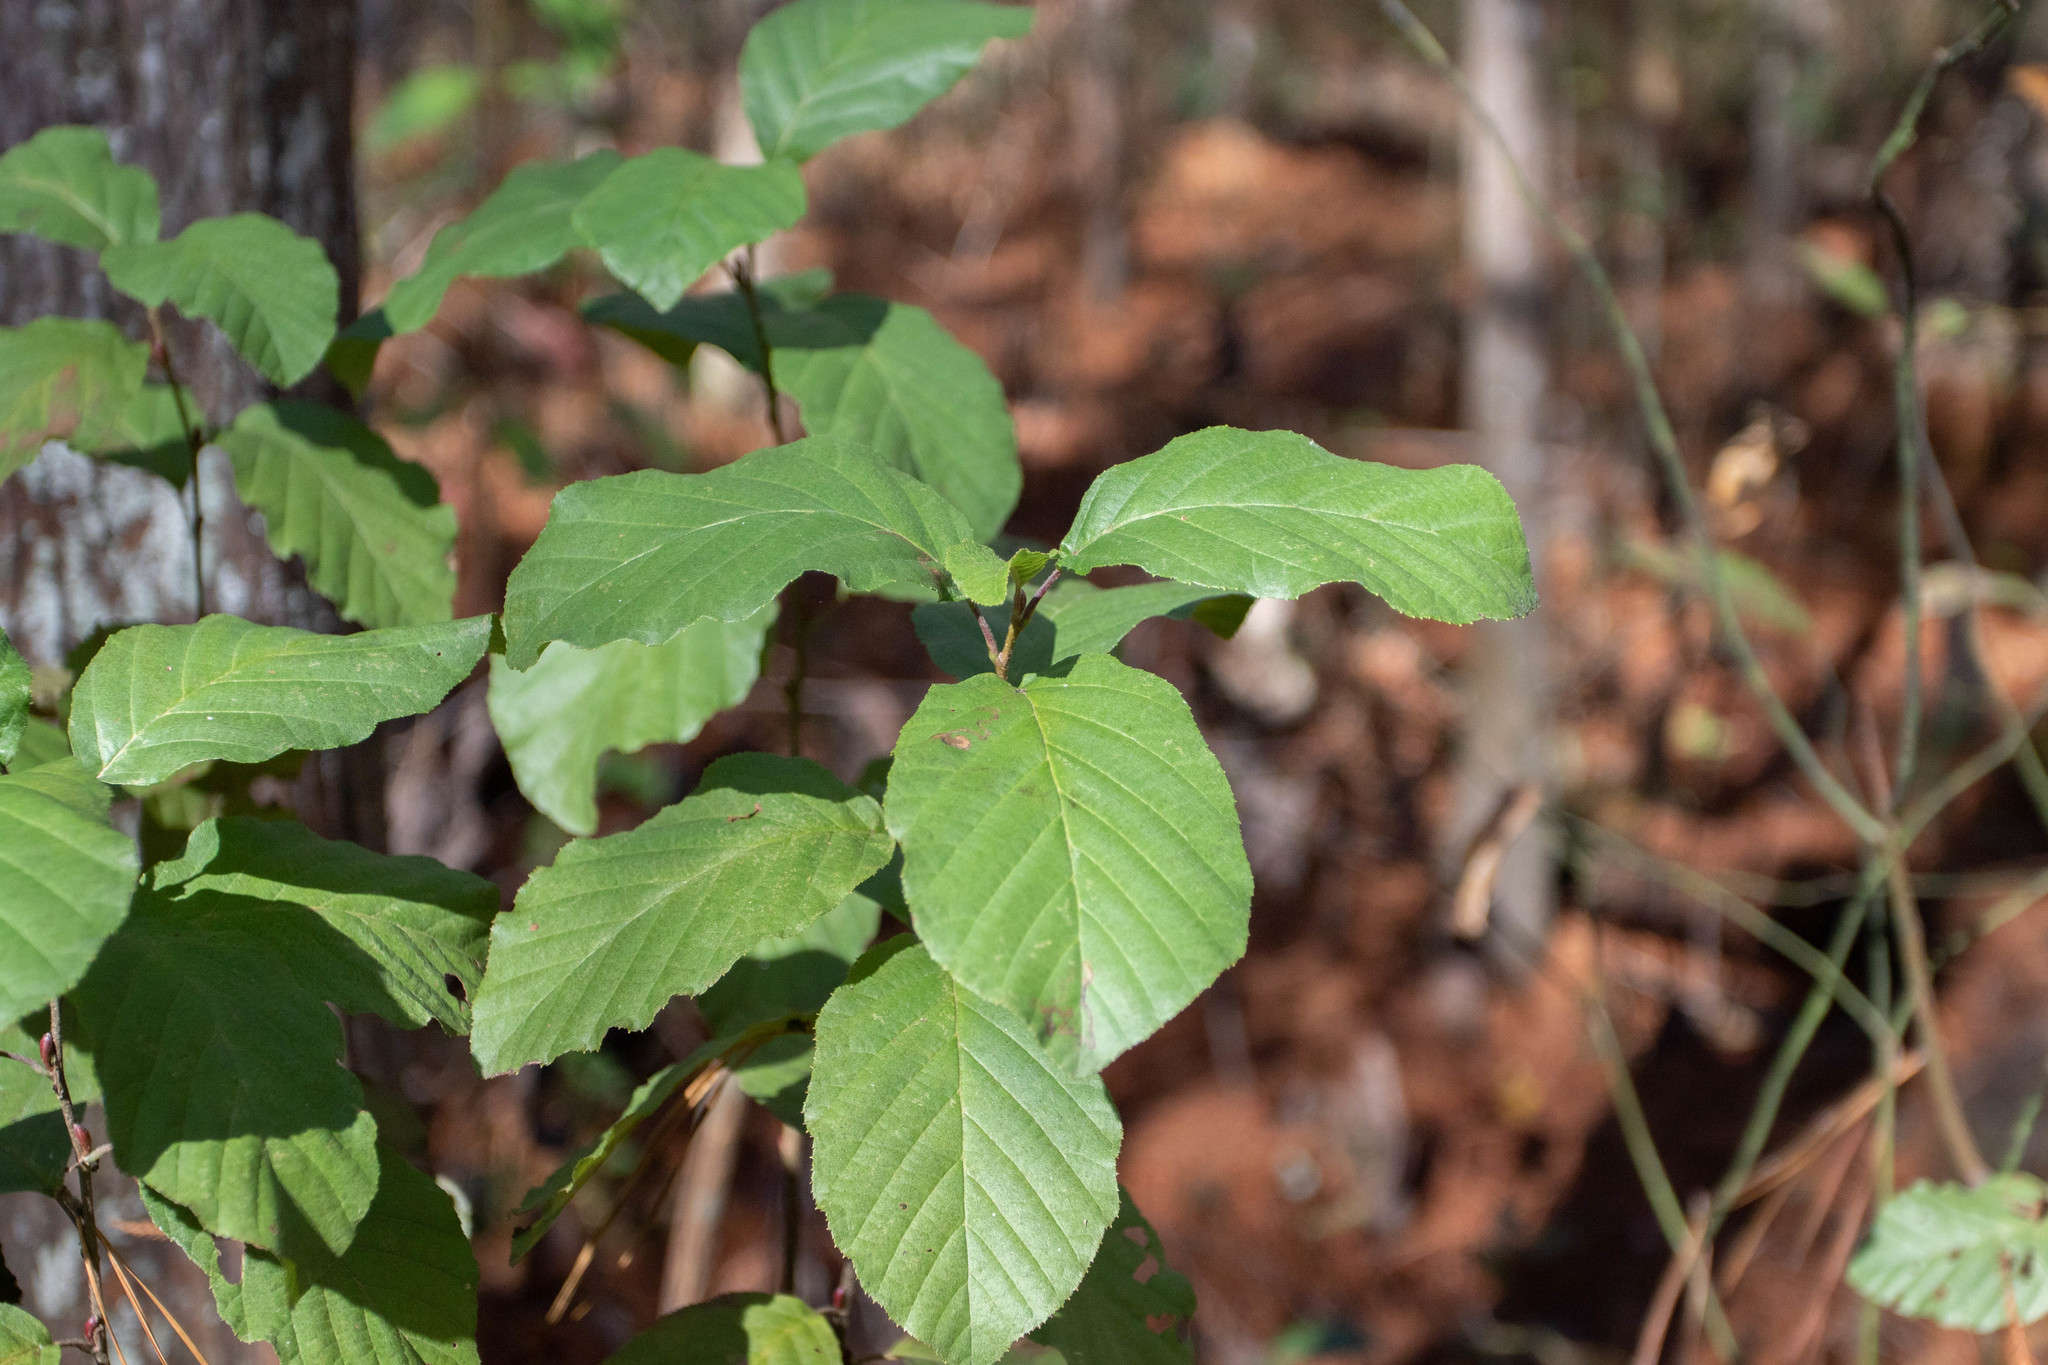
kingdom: Plantae
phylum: Tracheophyta
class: Magnoliopsida
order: Fagales
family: Betulaceae
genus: Alnus
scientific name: Alnus serrulata
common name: Hazel alder
